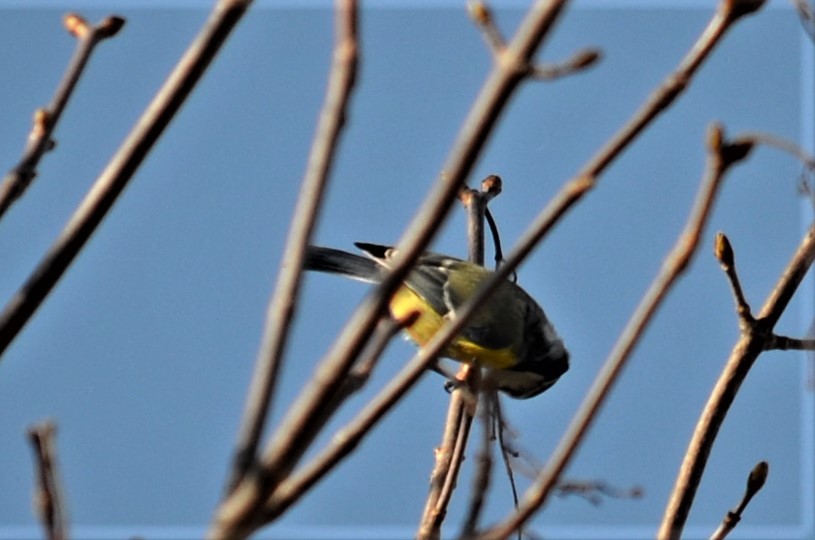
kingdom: Animalia
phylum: Chordata
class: Aves
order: Passeriformes
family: Paridae
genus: Cyanistes
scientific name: Cyanistes caeruleus
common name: Eurasian blue tit
